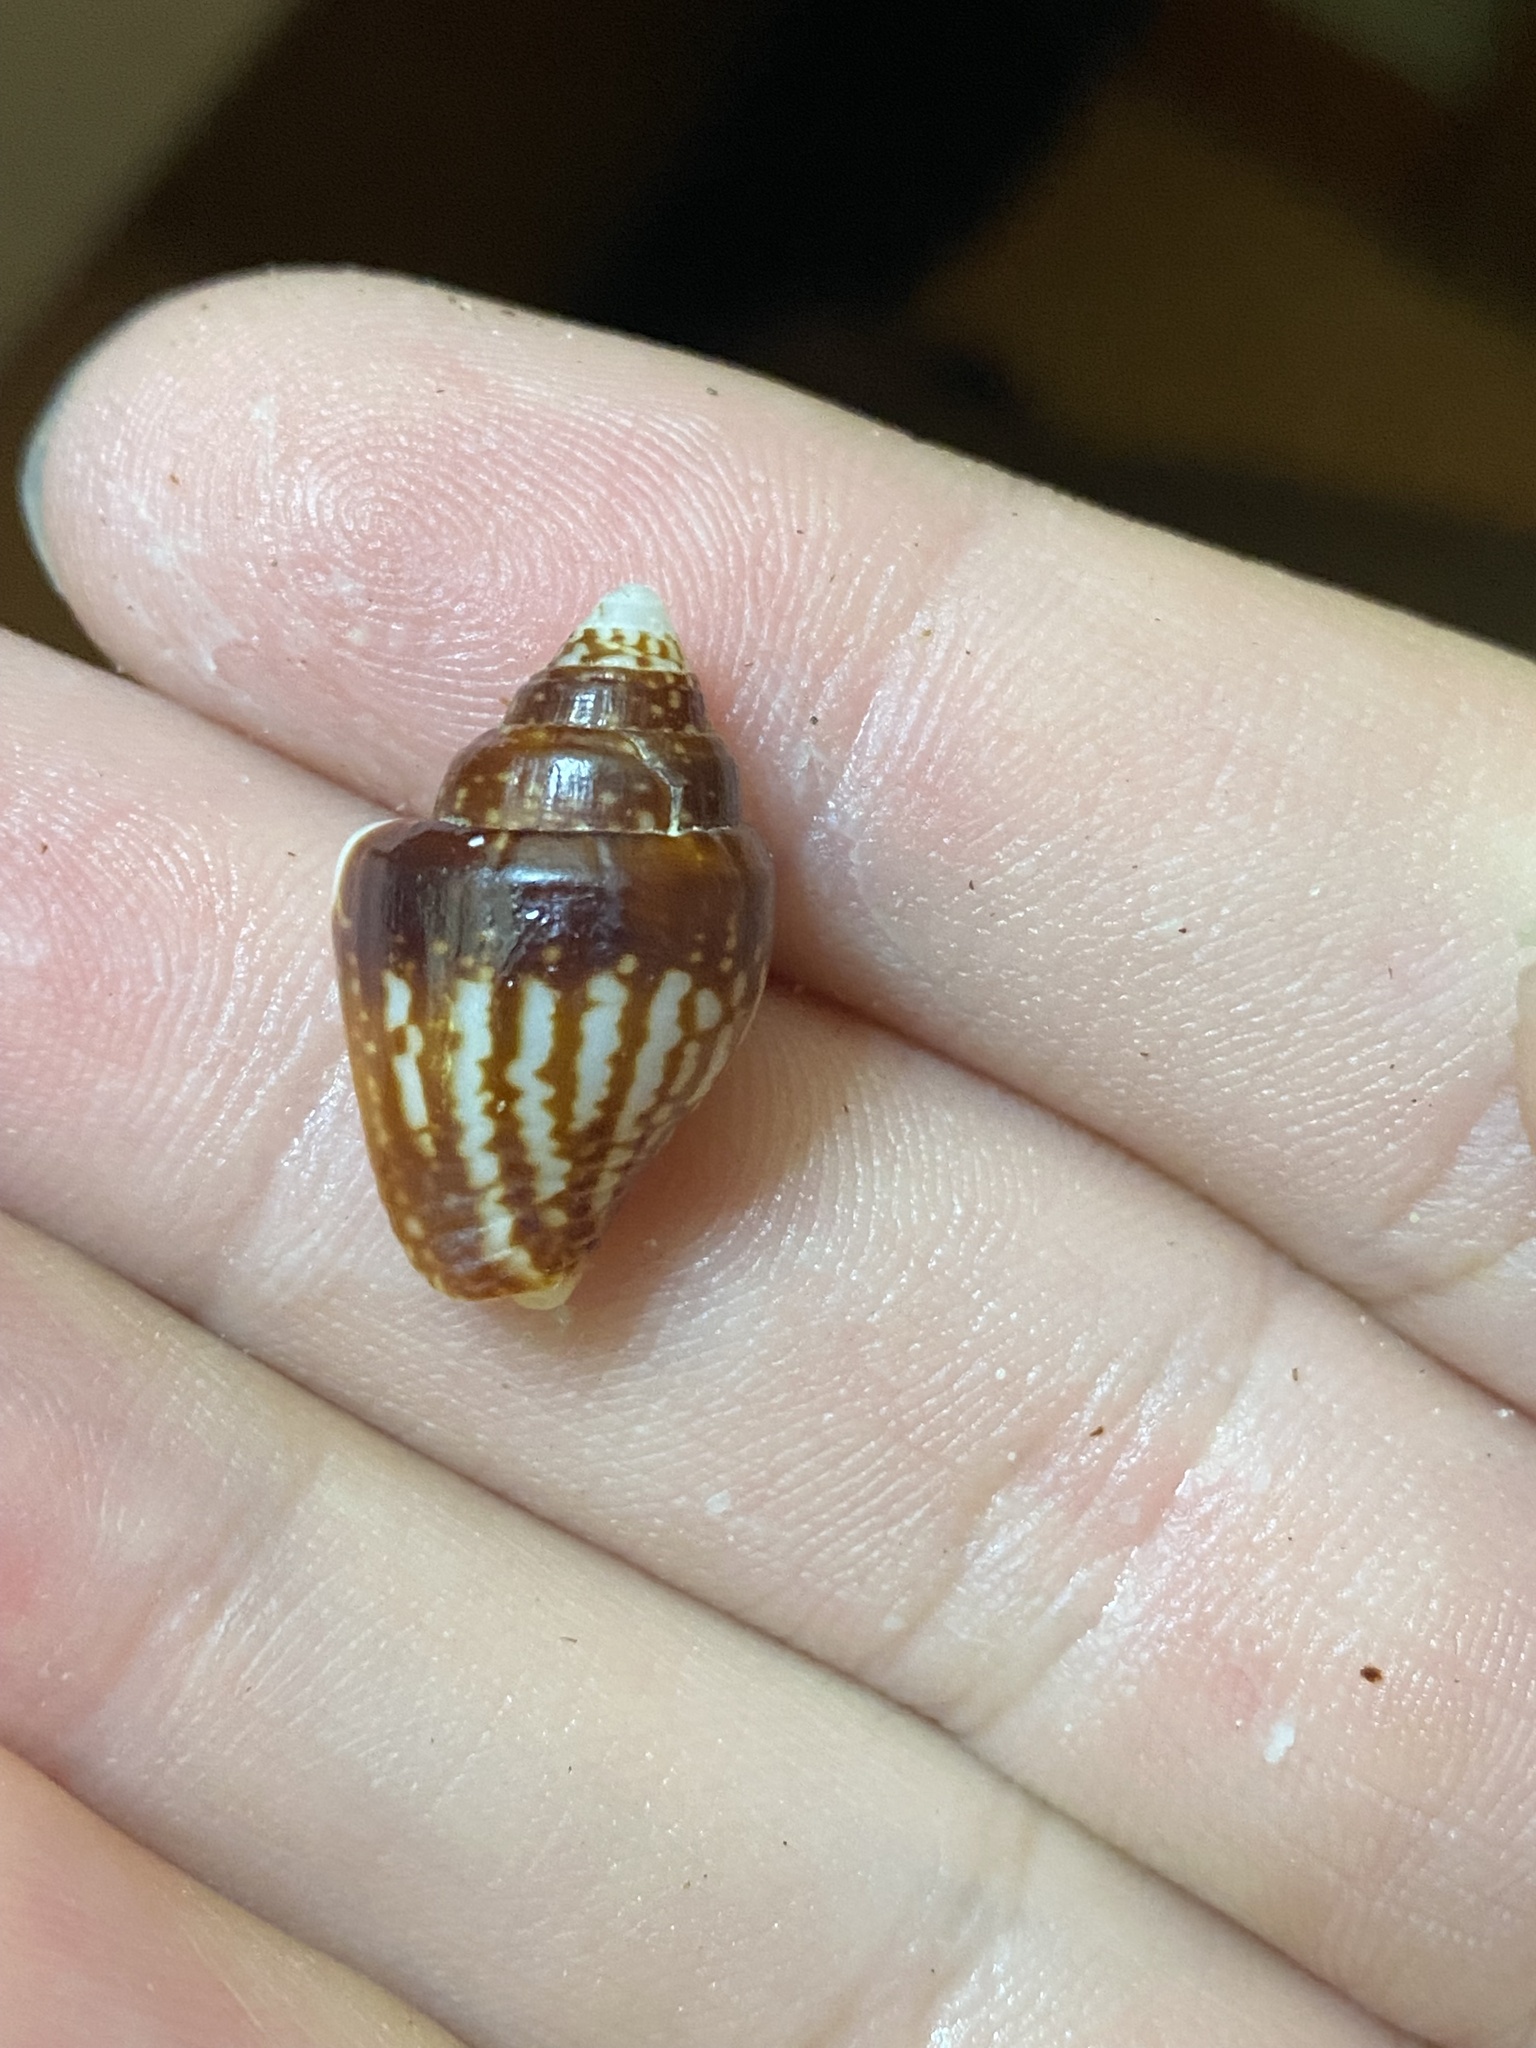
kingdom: Animalia
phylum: Mollusca
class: Gastropoda
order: Neogastropoda
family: Columbellidae
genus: Columbella
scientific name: Columbella strombiformis
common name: Stromboid dove shell
